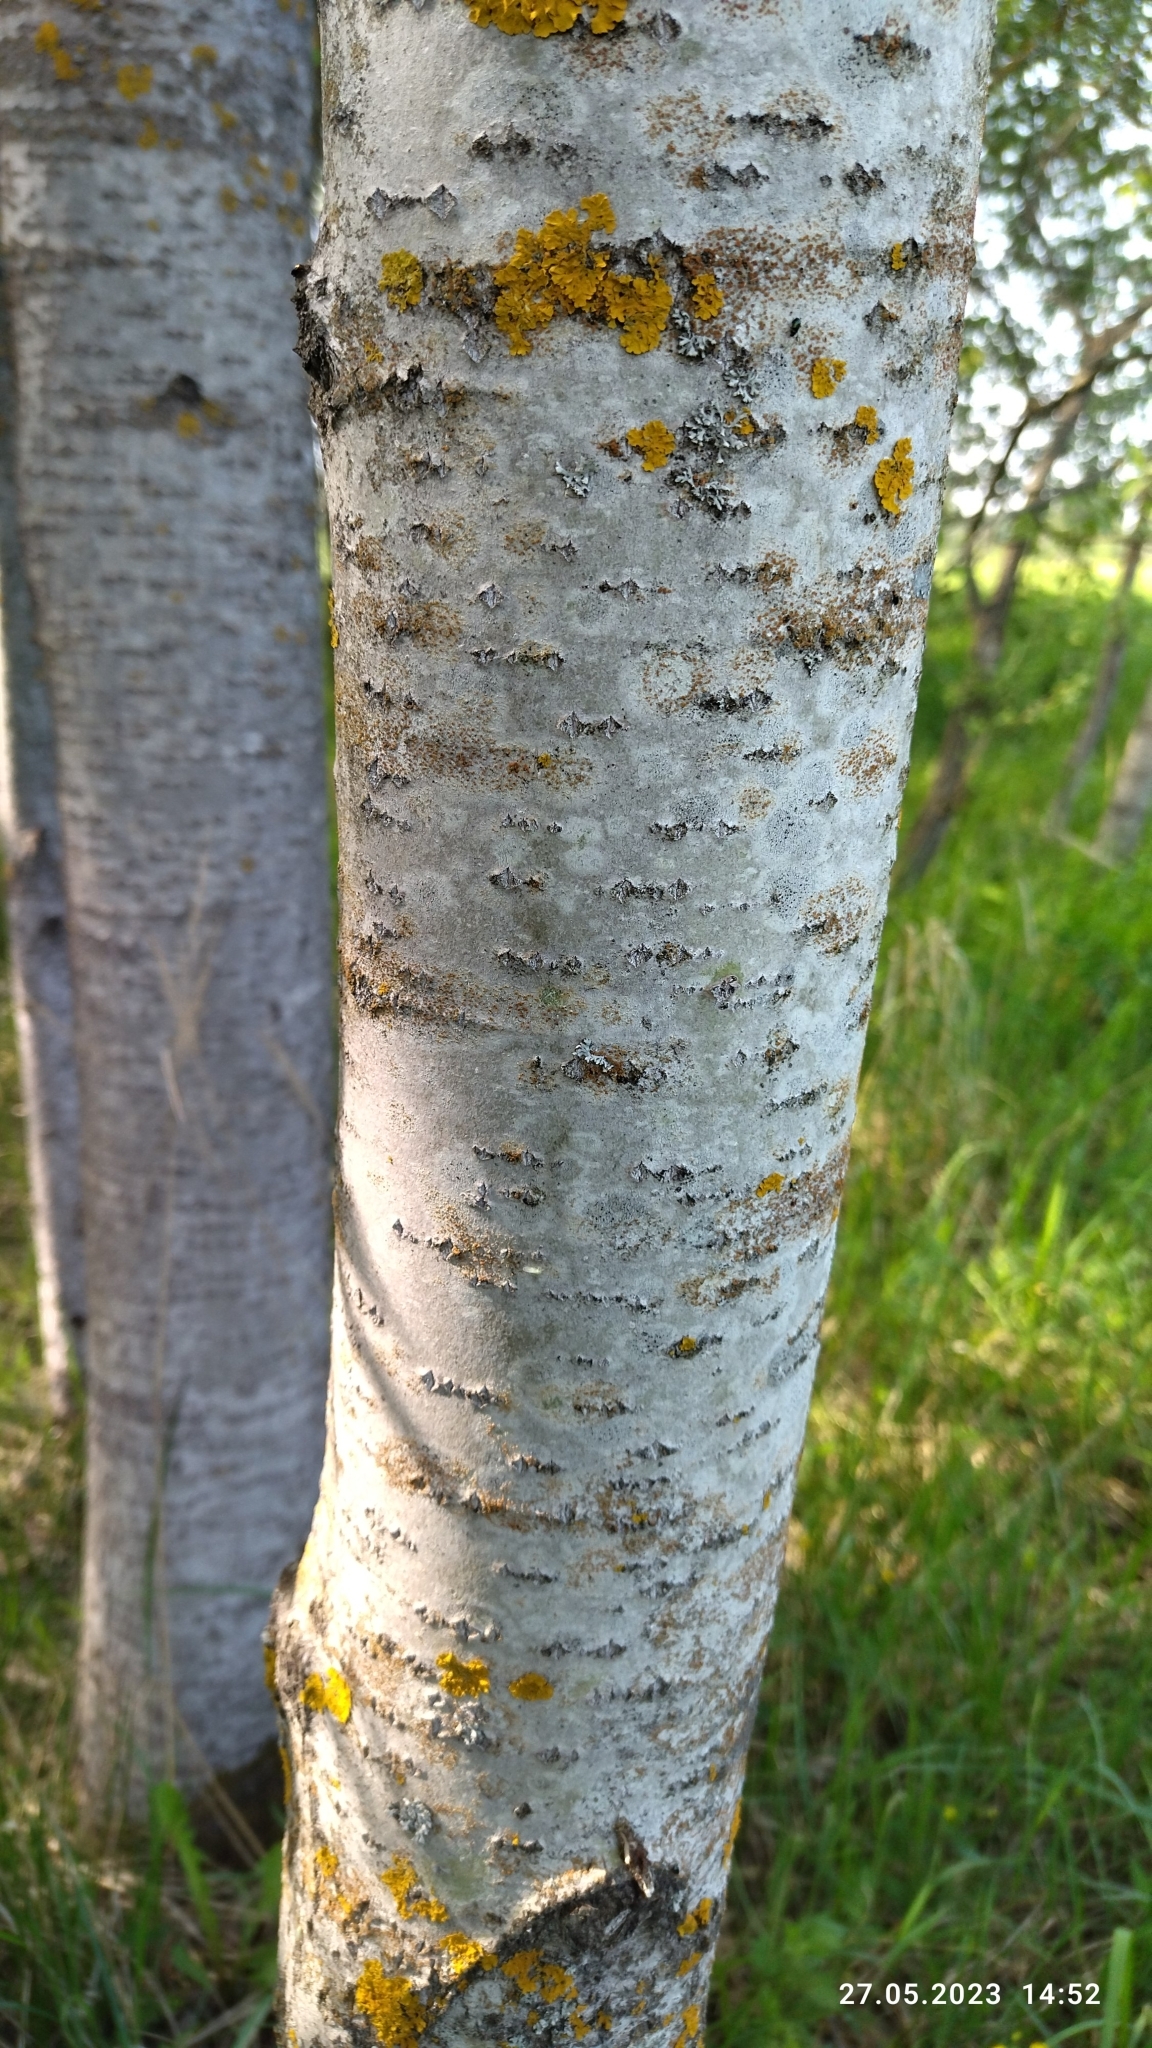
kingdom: Plantae
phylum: Tracheophyta
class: Magnoliopsida
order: Malpighiales
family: Salicaceae
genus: Populus
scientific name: Populus tremula
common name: European aspen
